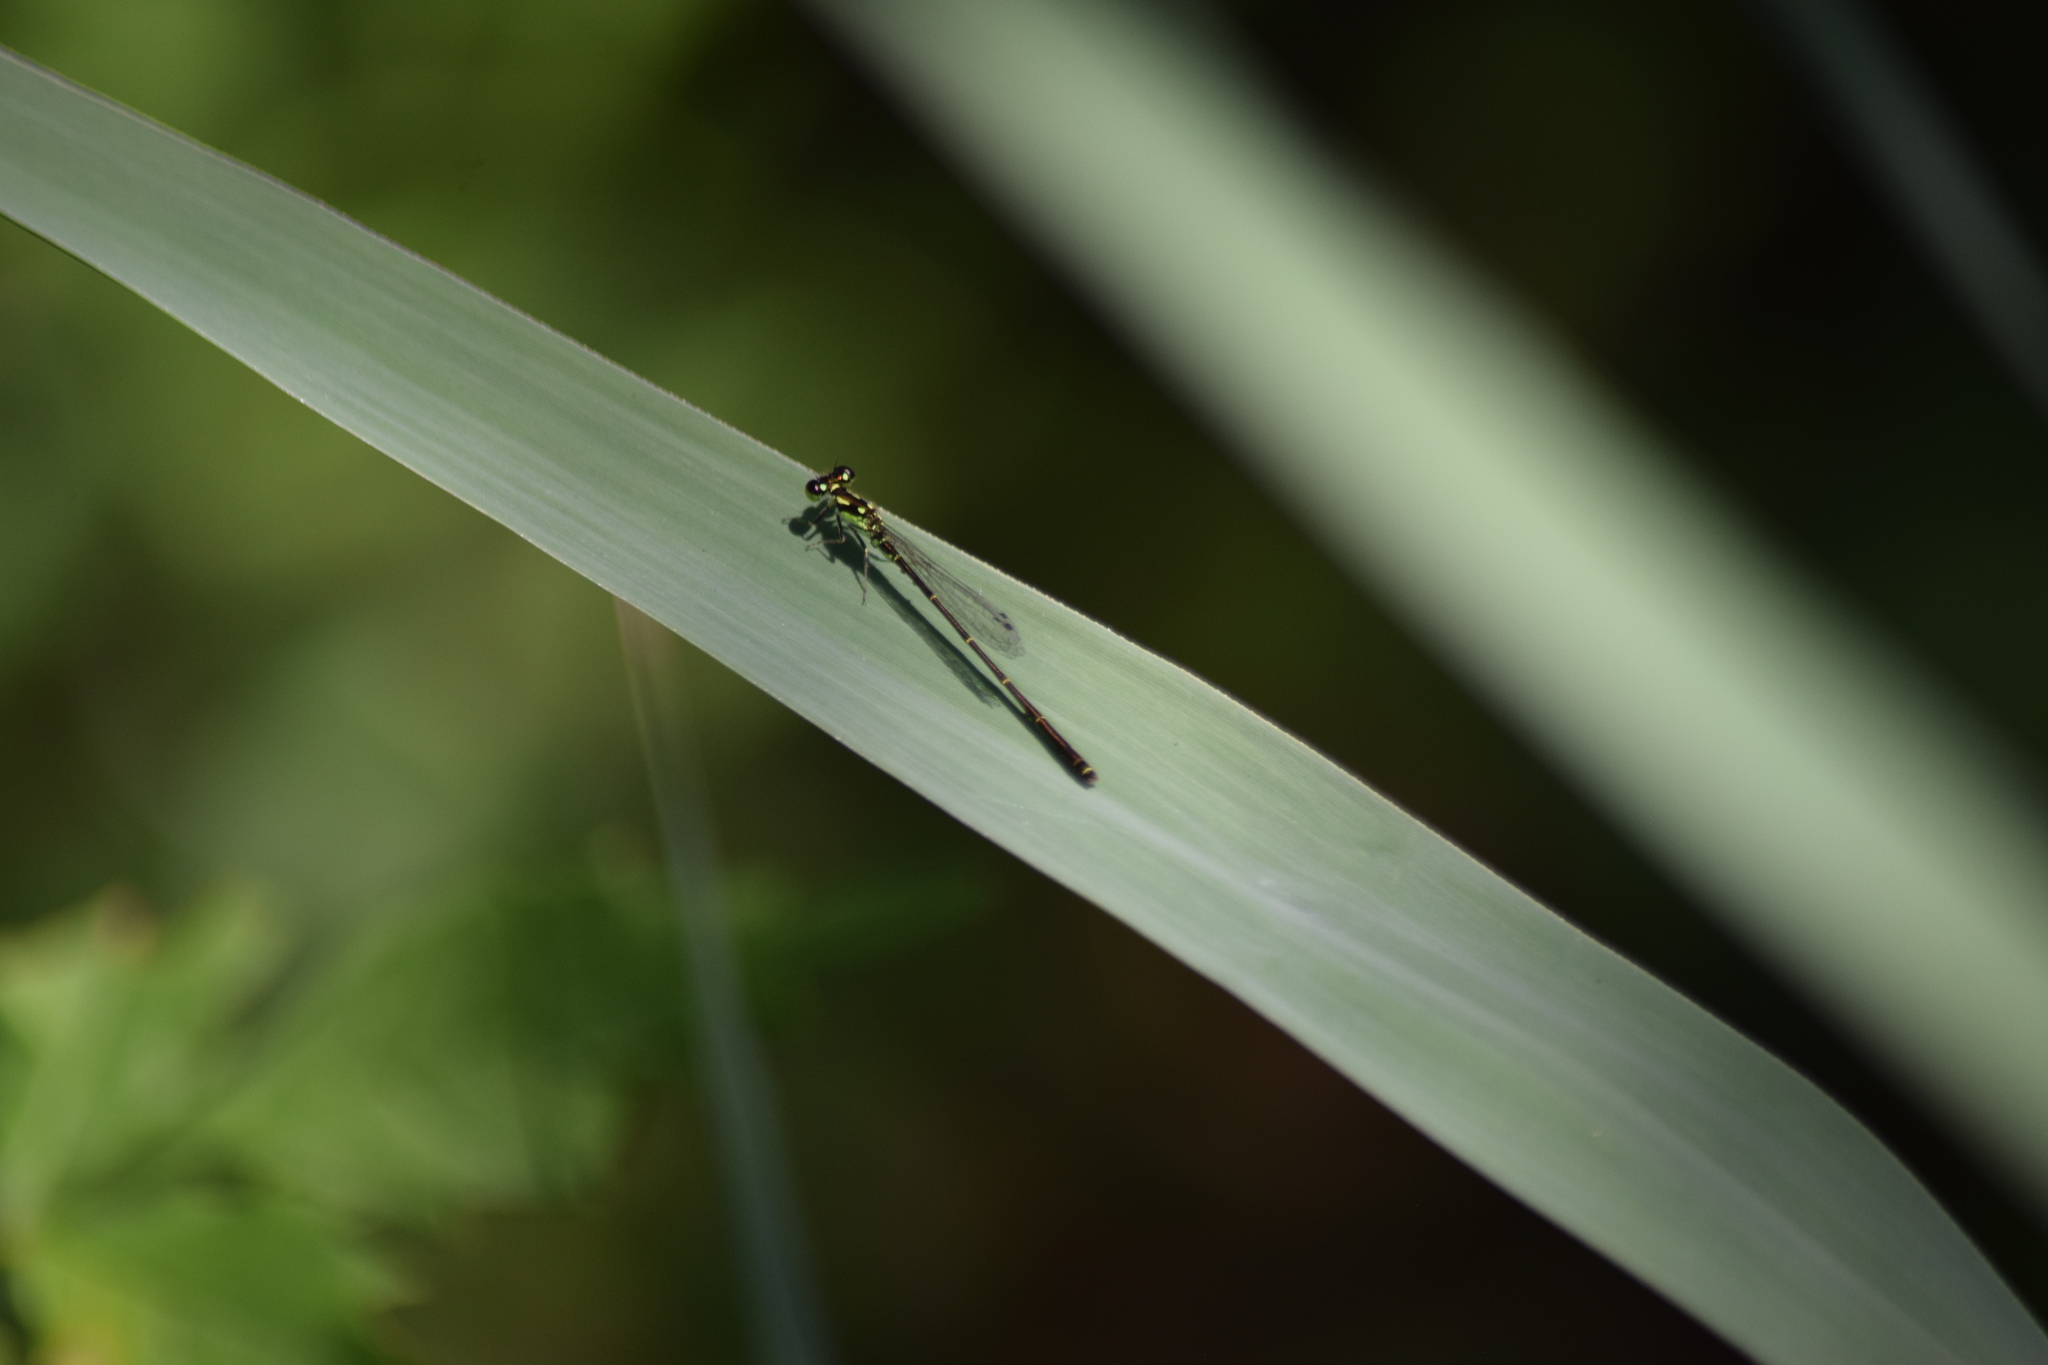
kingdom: Animalia
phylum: Arthropoda
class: Insecta
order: Odonata
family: Coenagrionidae
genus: Ischnura
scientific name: Ischnura posita
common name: Fragile forktail
